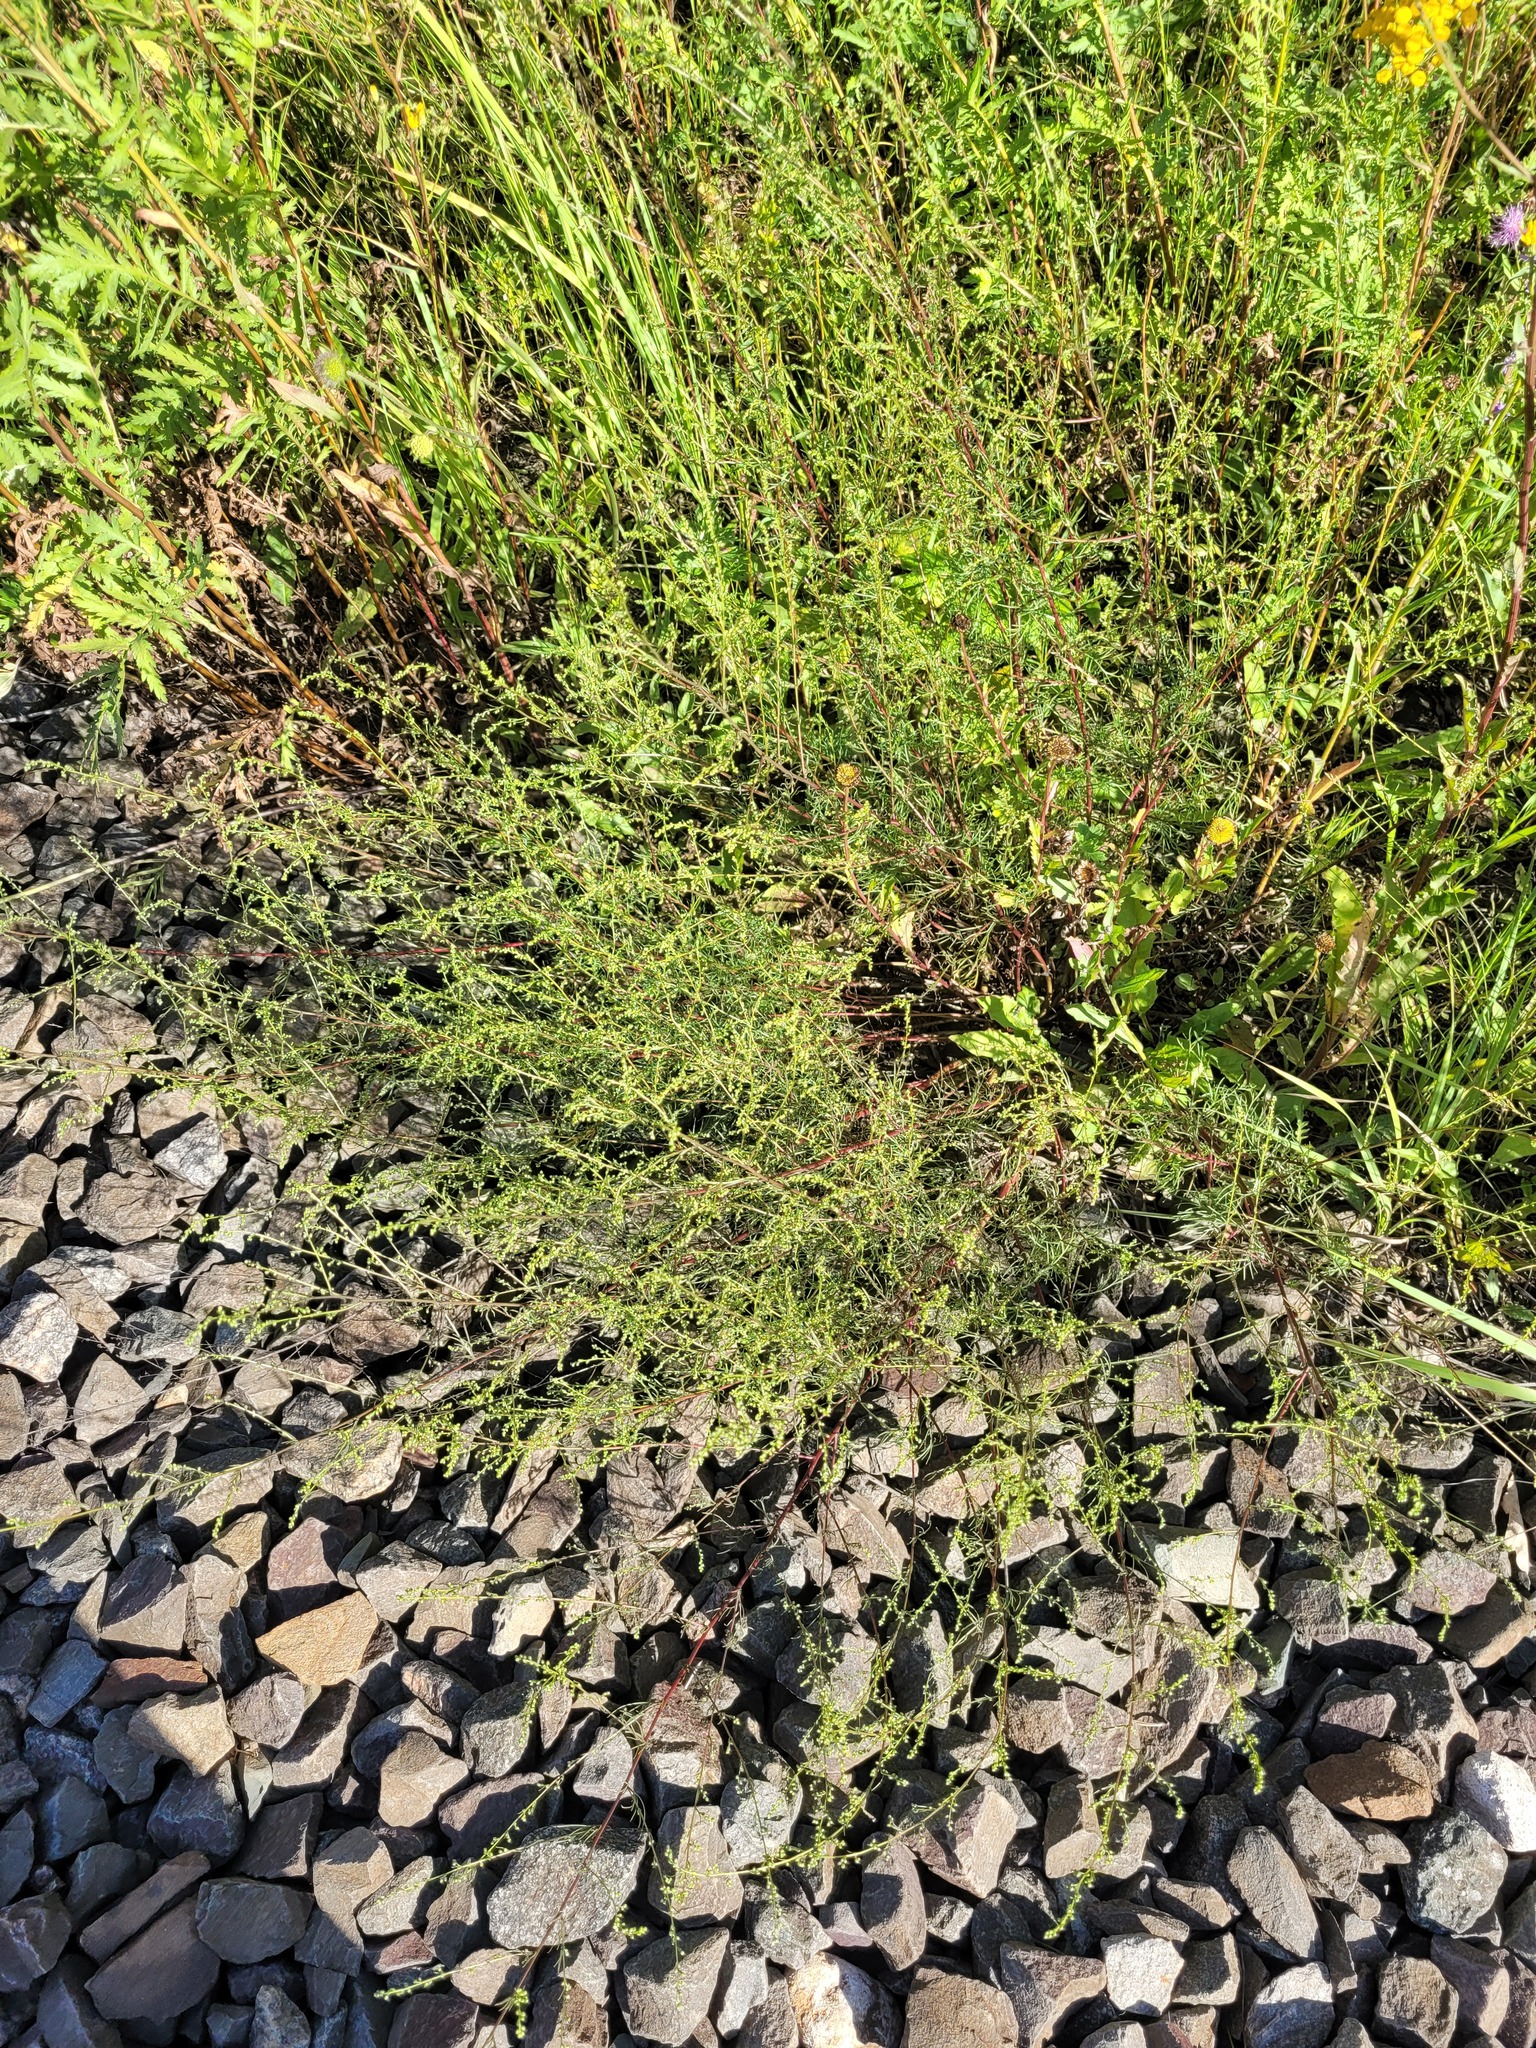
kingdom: Plantae
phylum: Tracheophyta
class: Magnoliopsida
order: Asterales
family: Asteraceae
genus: Artemisia
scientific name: Artemisia campestris
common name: Field wormwood
